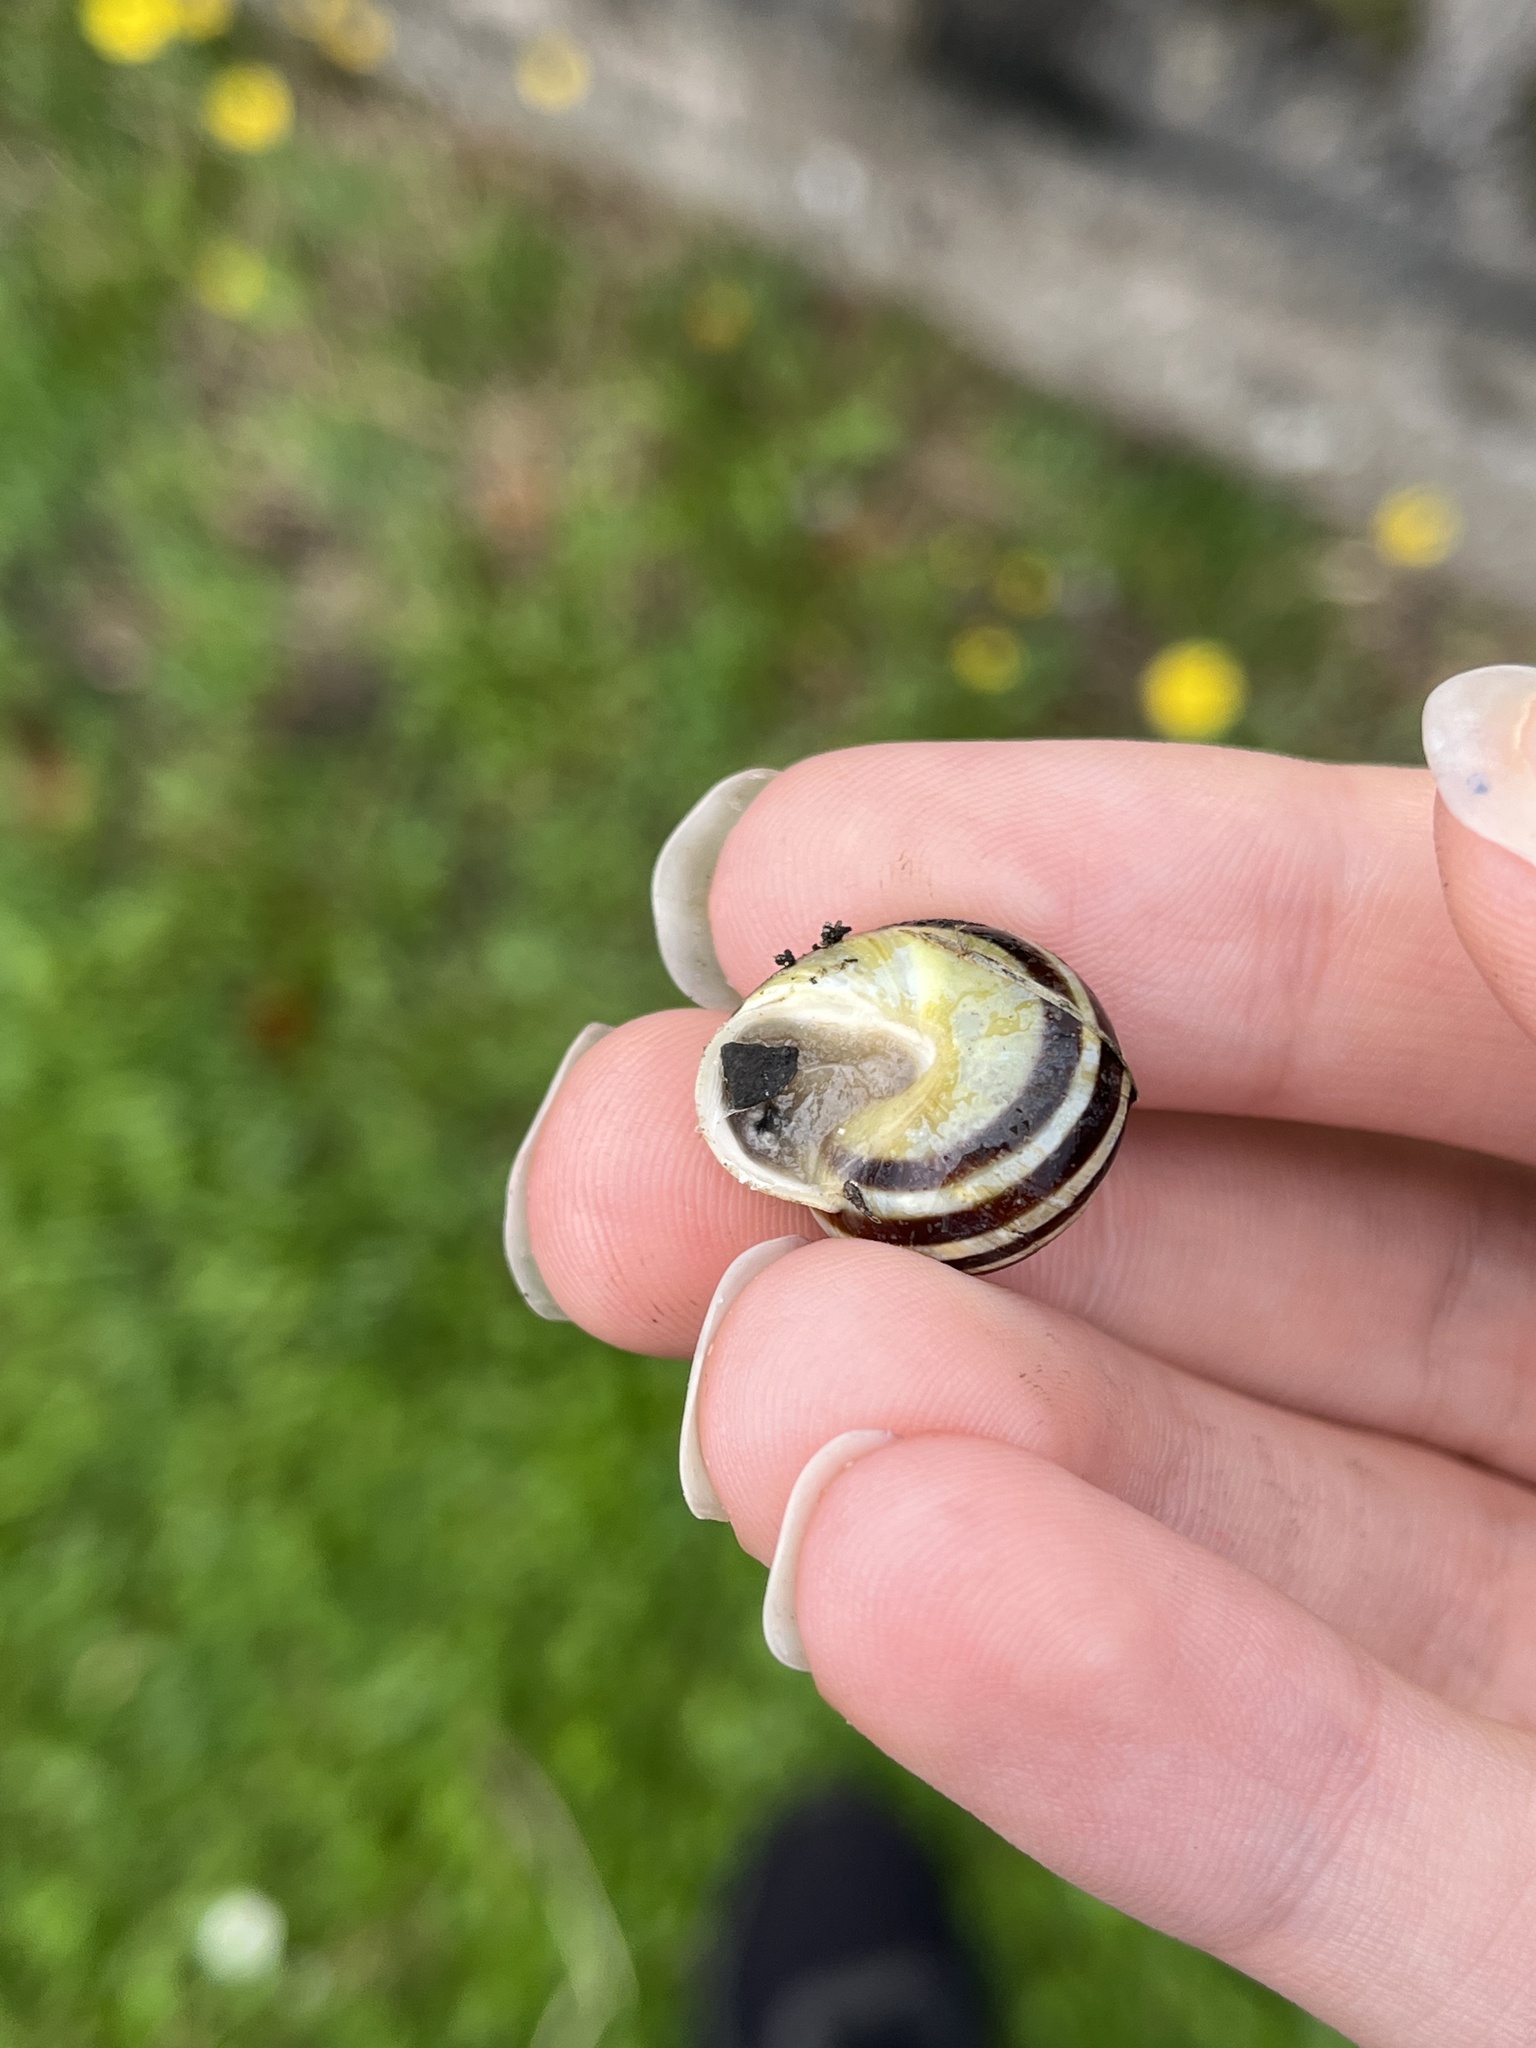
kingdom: Animalia
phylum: Mollusca
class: Gastropoda
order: Stylommatophora
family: Helicidae
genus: Cepaea
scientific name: Cepaea hortensis
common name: White-lip gardensnail
